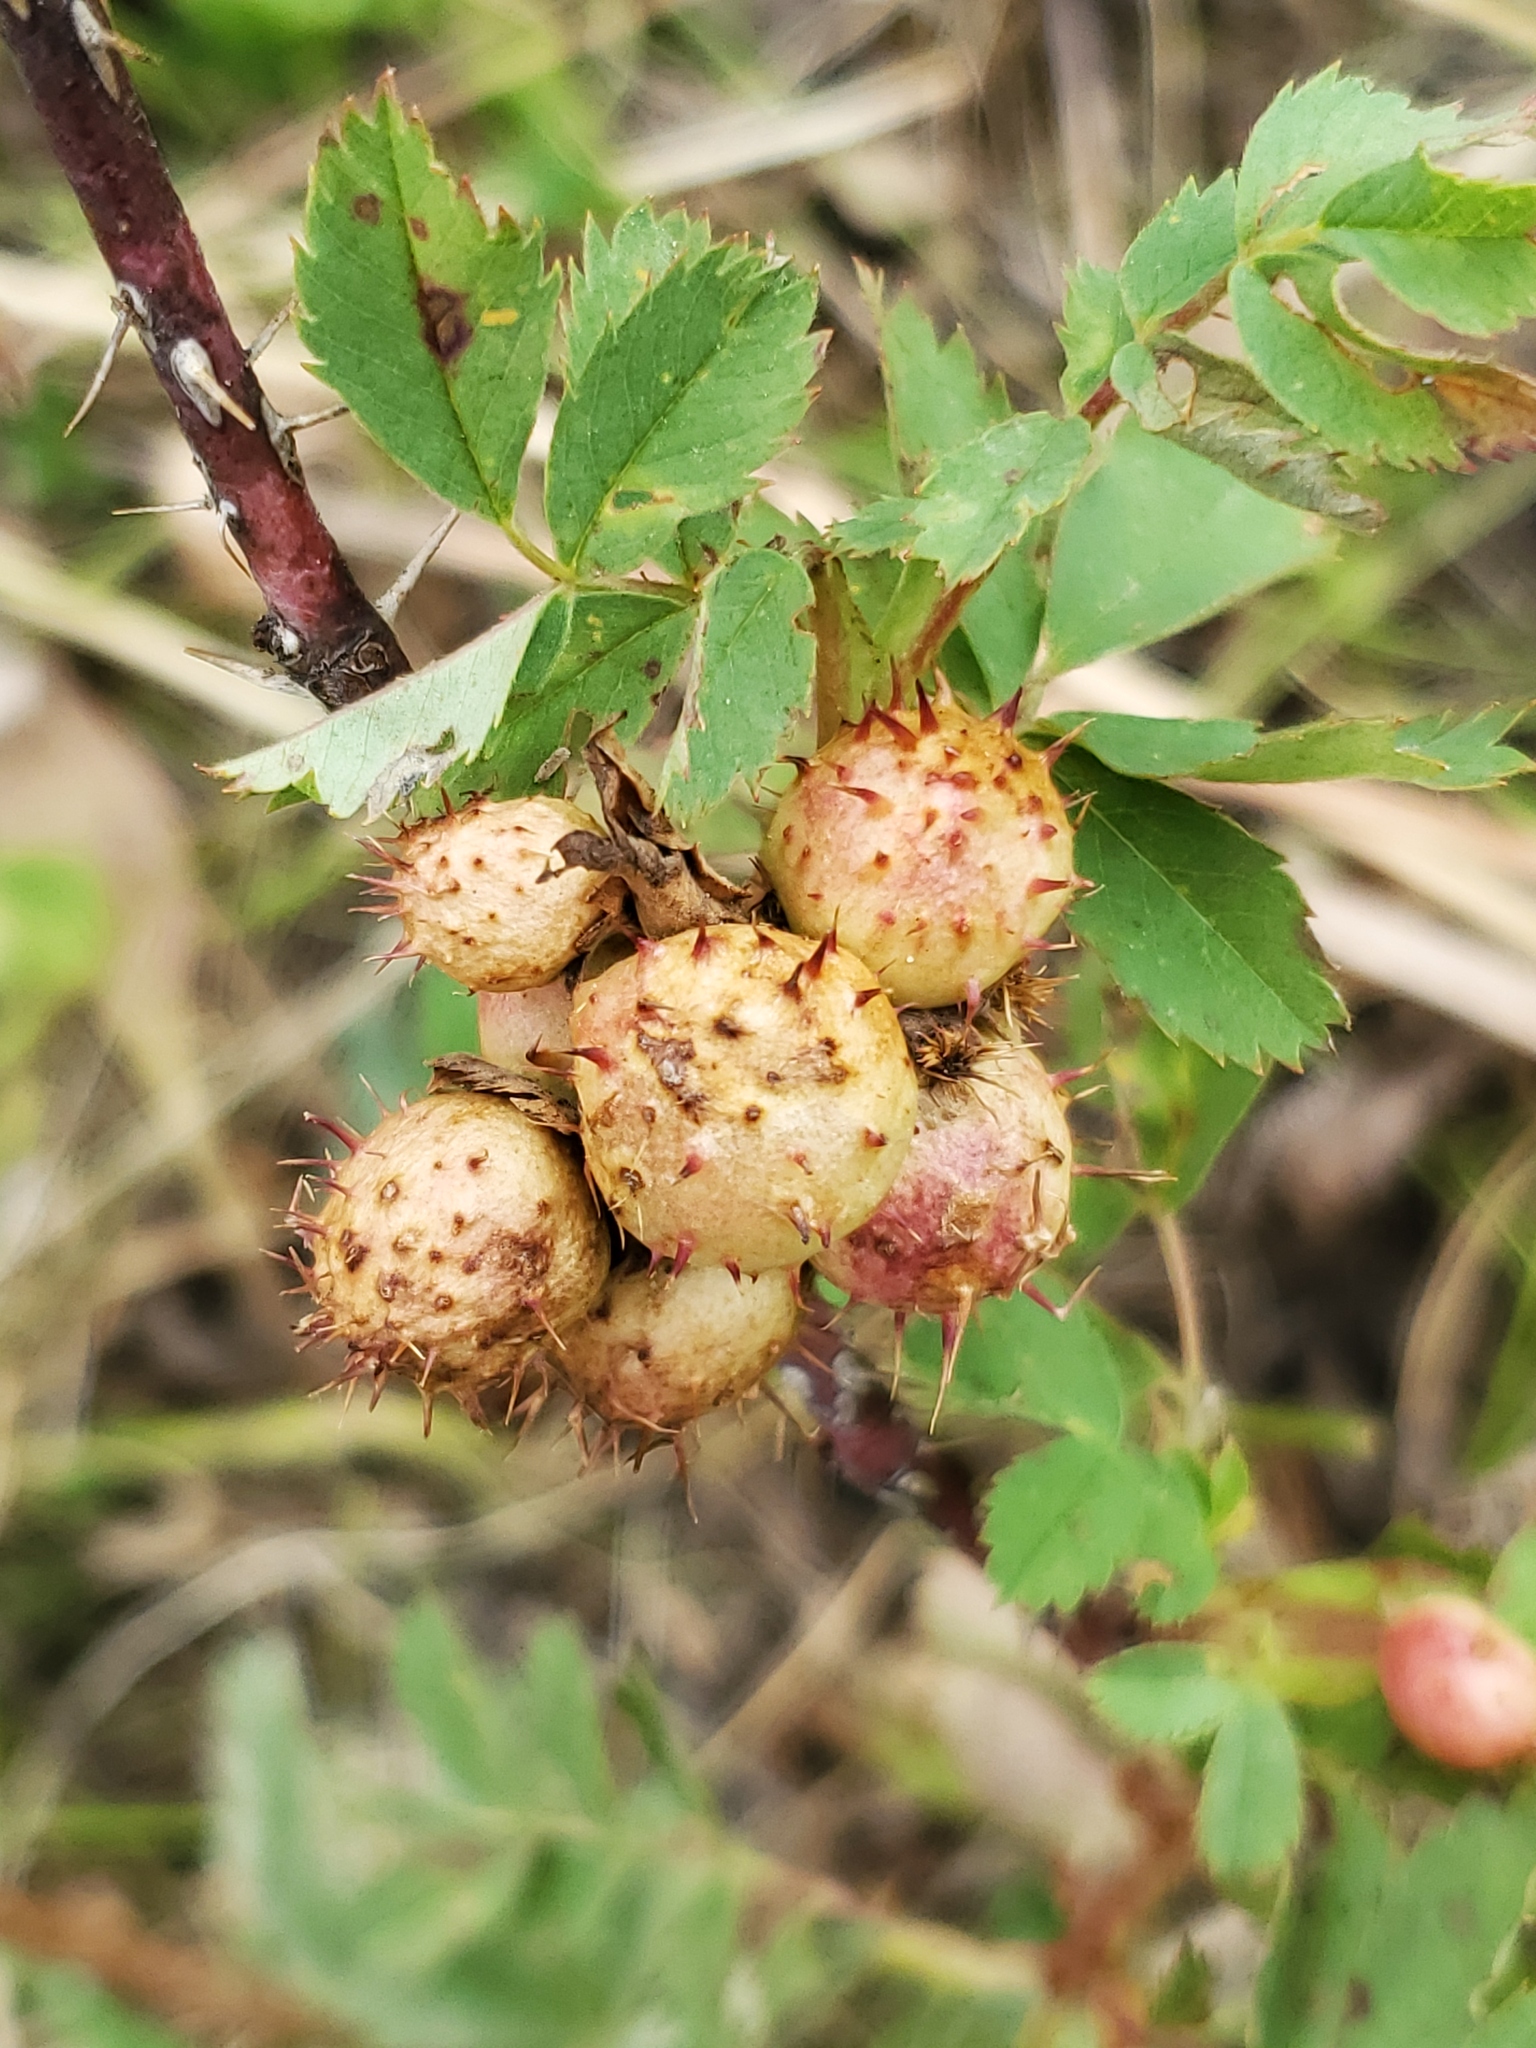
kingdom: Animalia
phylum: Arthropoda
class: Insecta
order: Hymenoptera
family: Cynipidae
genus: Diplolepis
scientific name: Diplolepis polita
